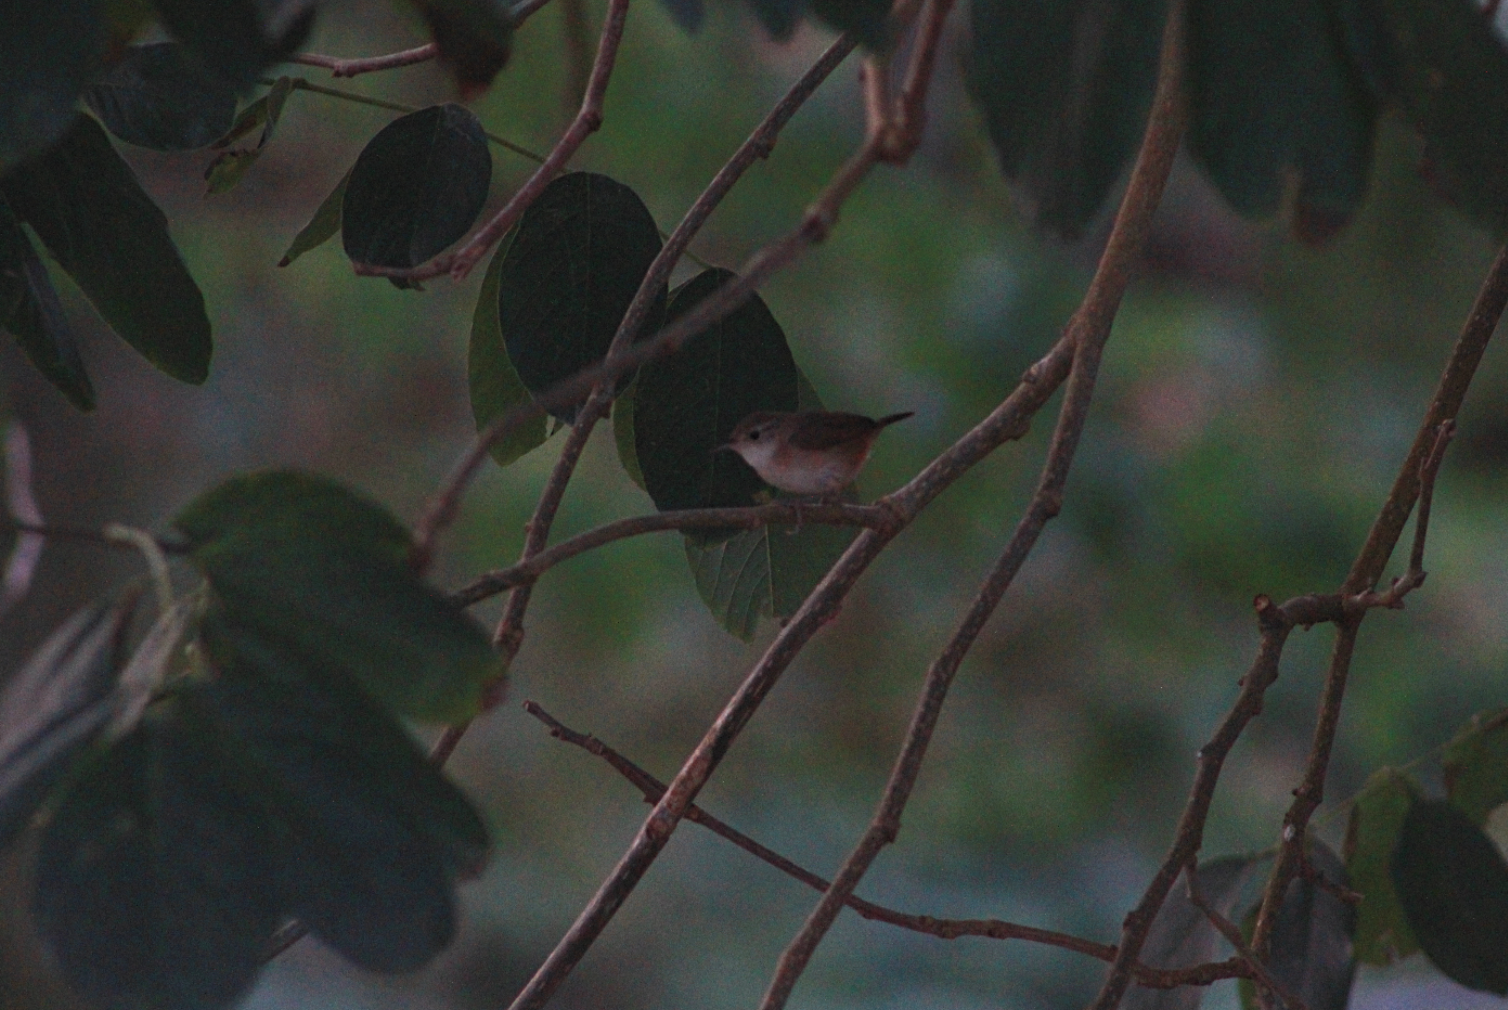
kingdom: Animalia
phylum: Chordata
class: Aves
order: Passeriformes
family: Troglodytidae
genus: Troglodytes
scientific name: Troglodytes aedon
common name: House wren
